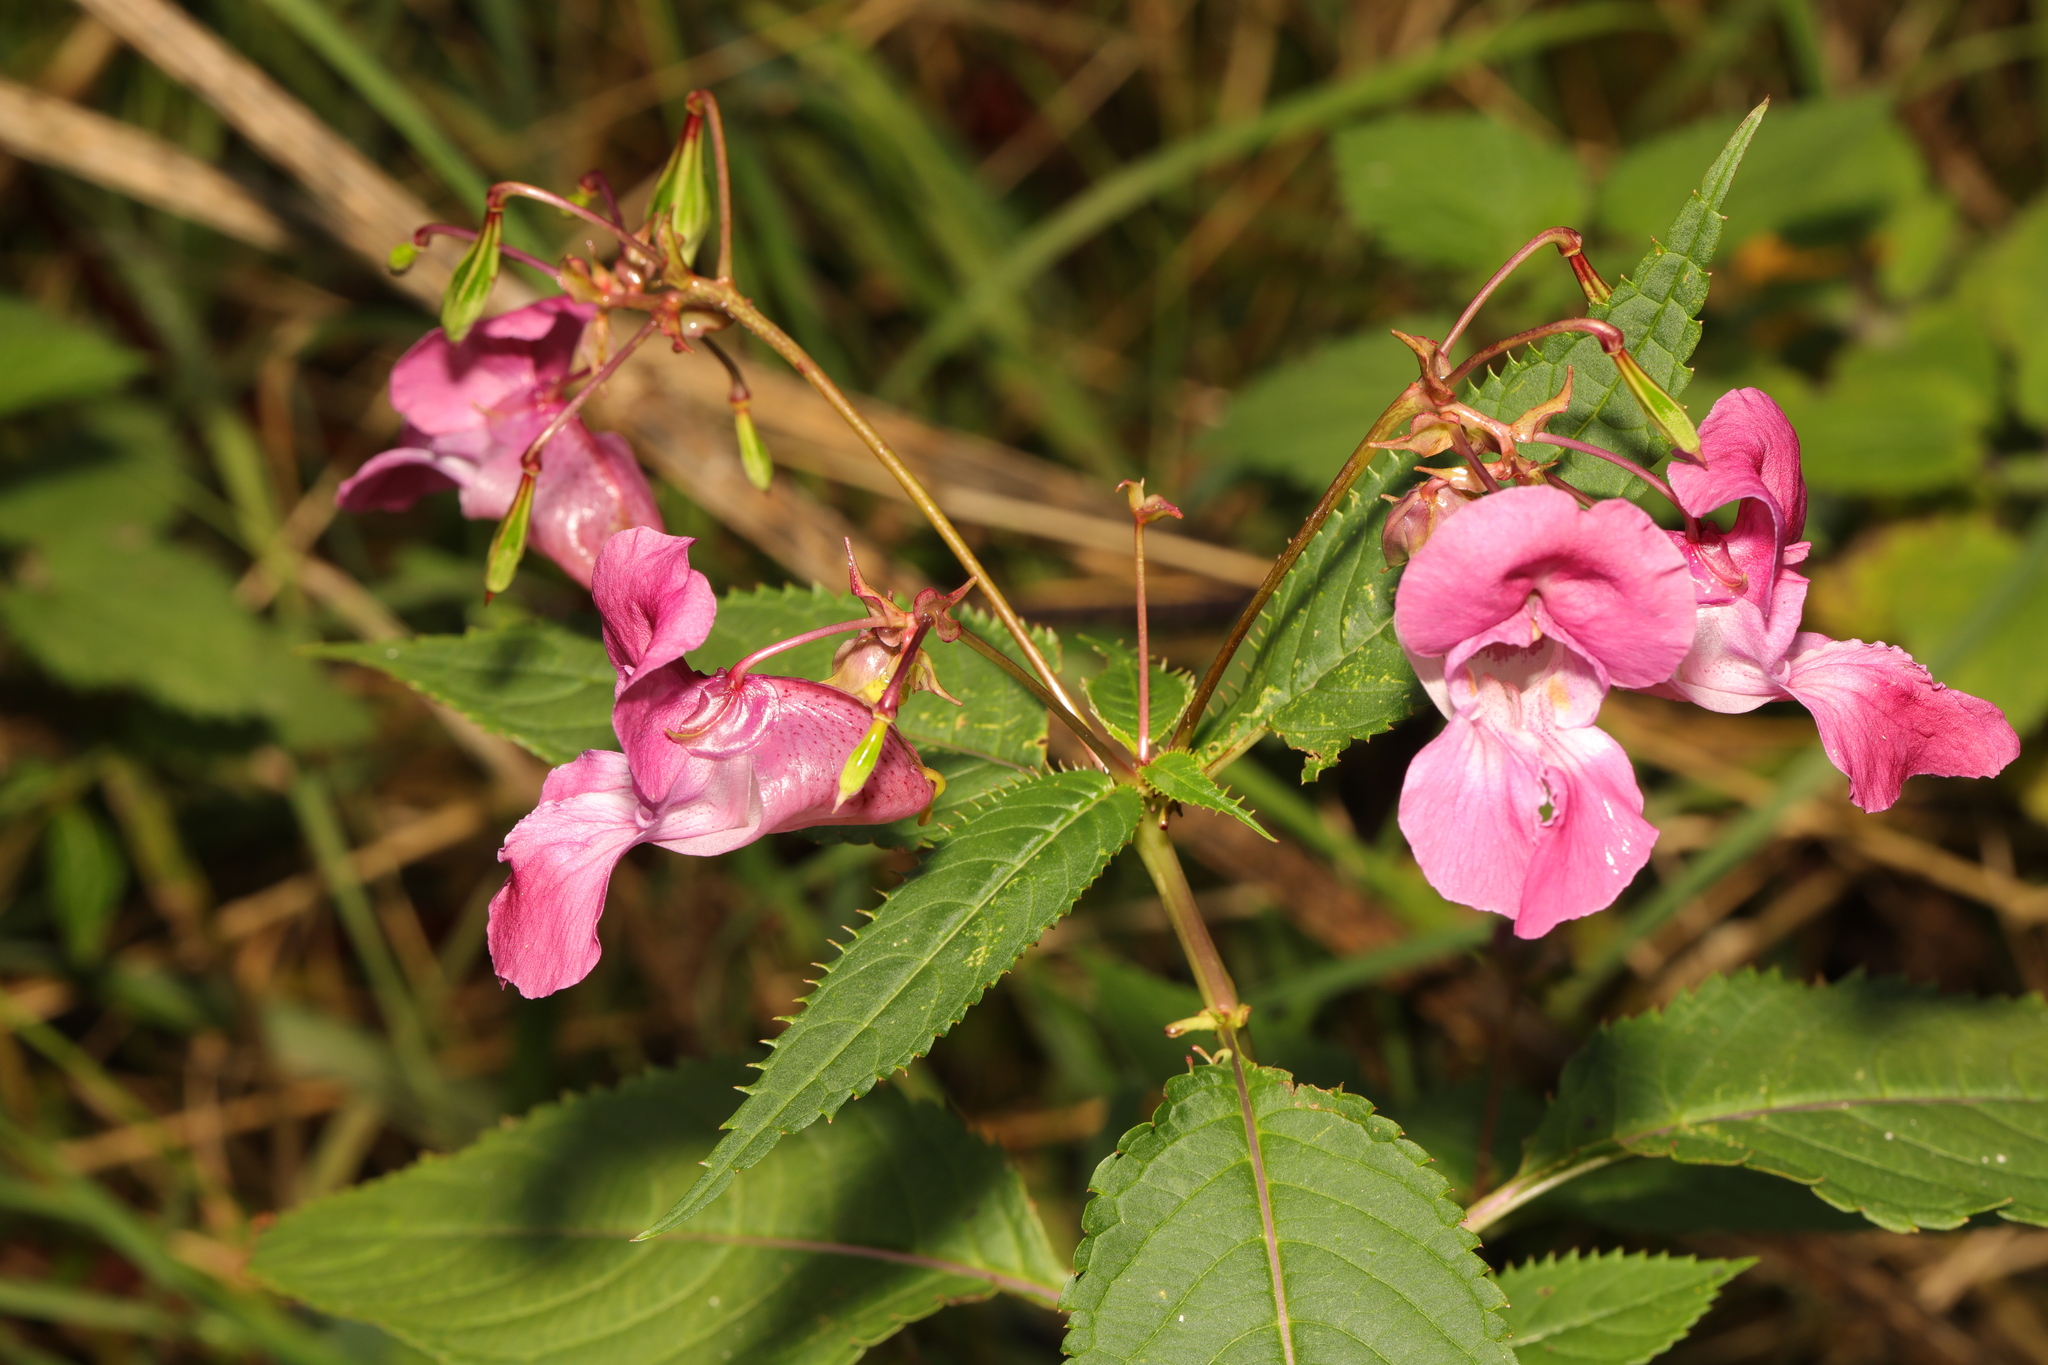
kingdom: Plantae
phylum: Tracheophyta
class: Magnoliopsida
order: Ericales
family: Balsaminaceae
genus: Impatiens
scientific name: Impatiens glandulifera
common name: Himalayan balsam
